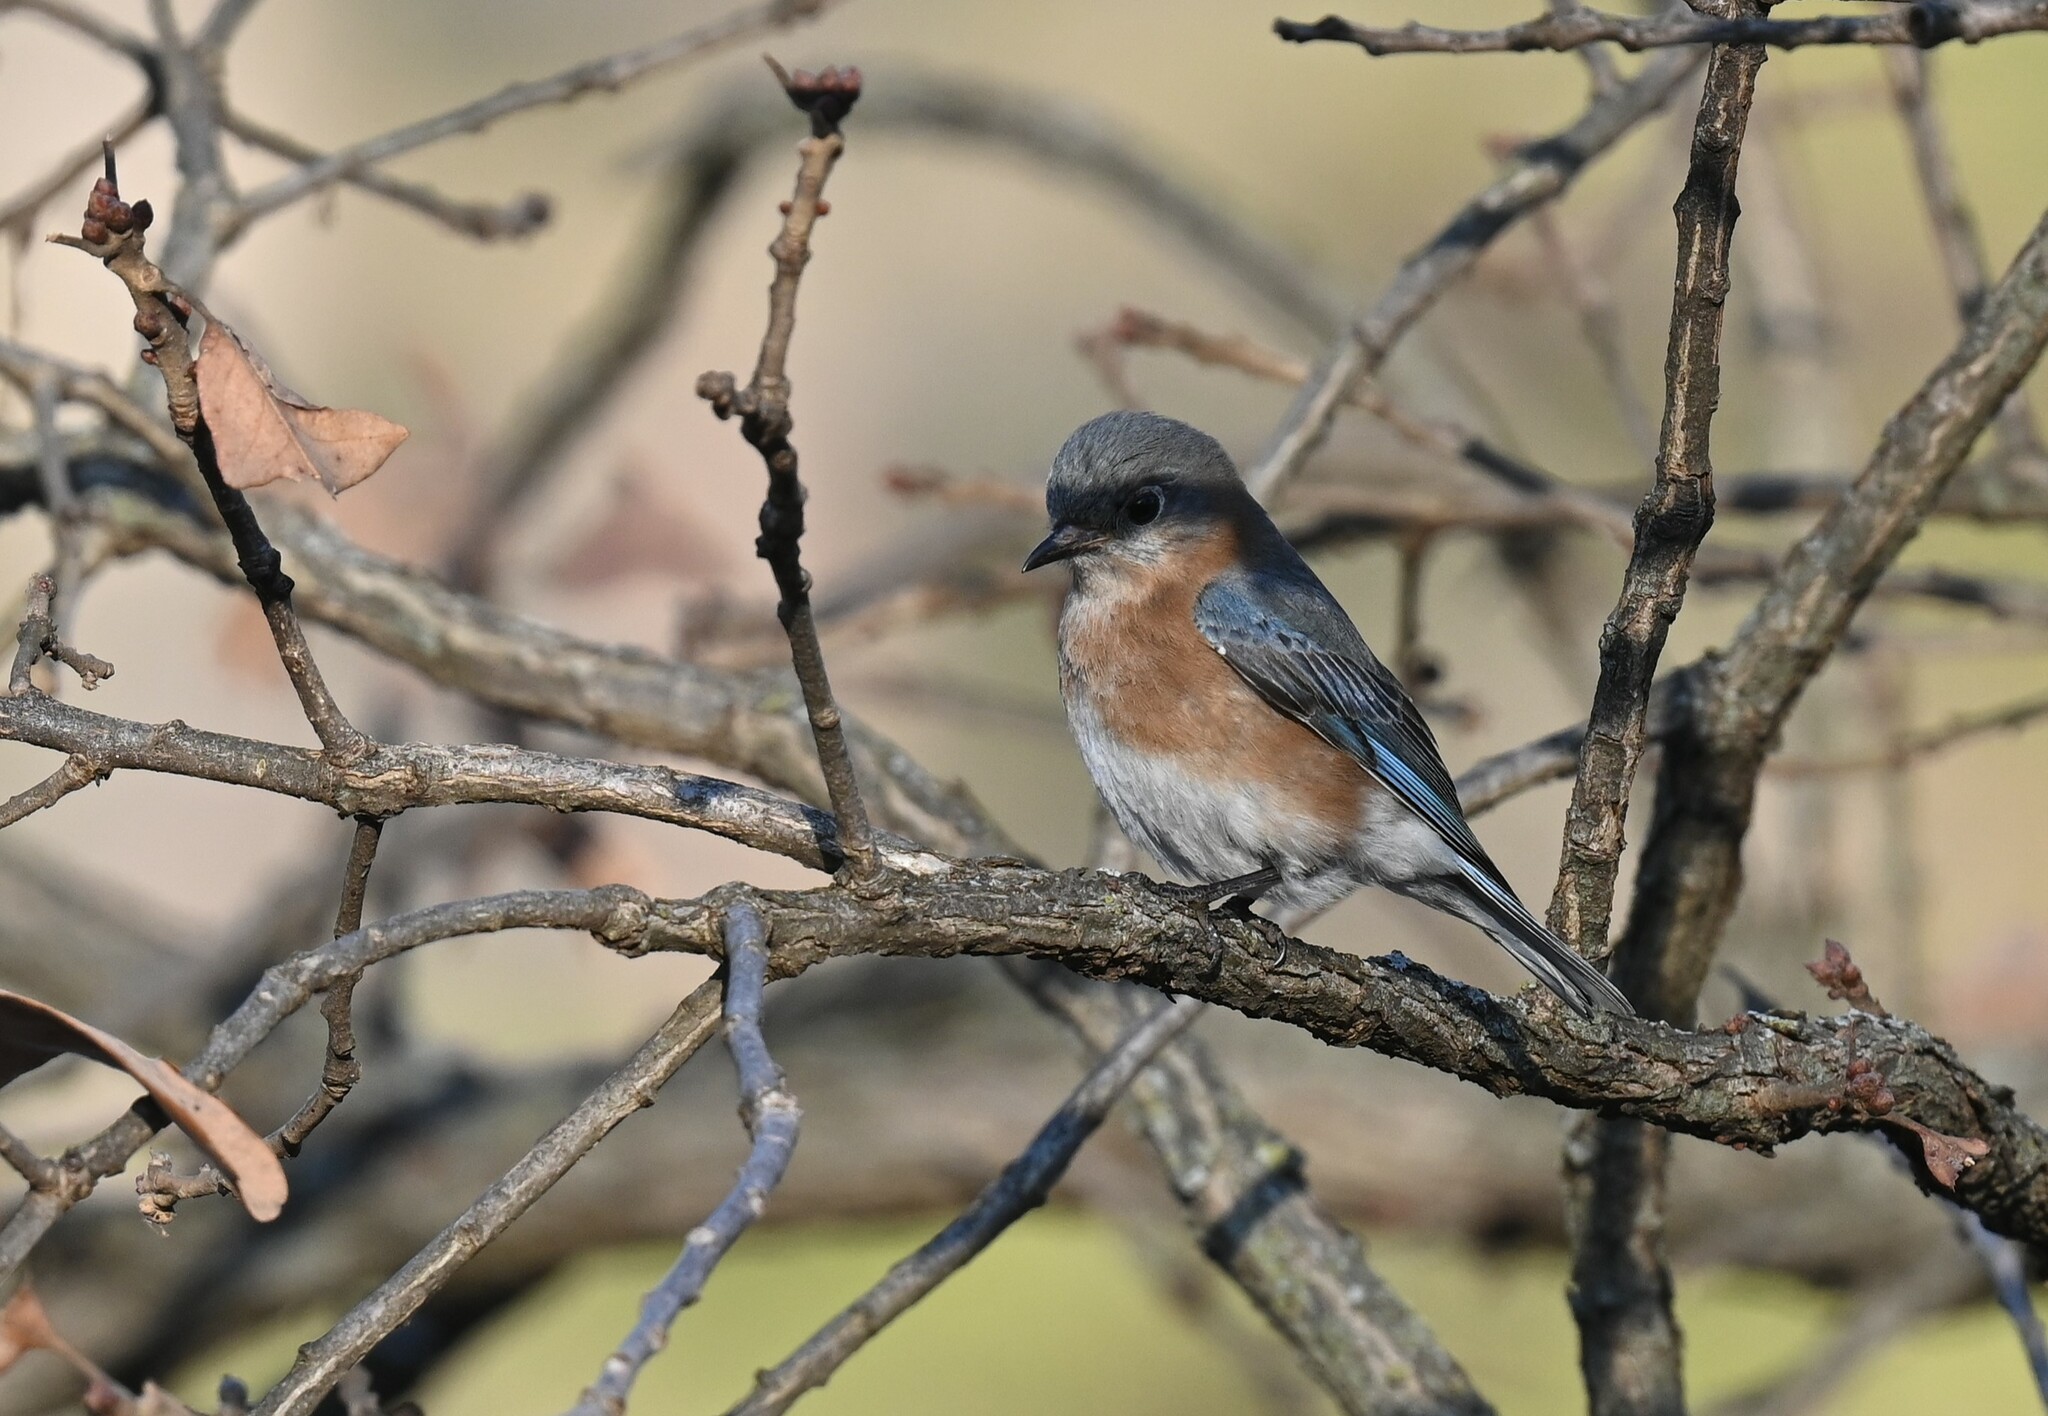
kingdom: Animalia
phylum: Chordata
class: Aves
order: Passeriformes
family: Turdidae
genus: Sialia
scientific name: Sialia sialis
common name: Eastern bluebird
